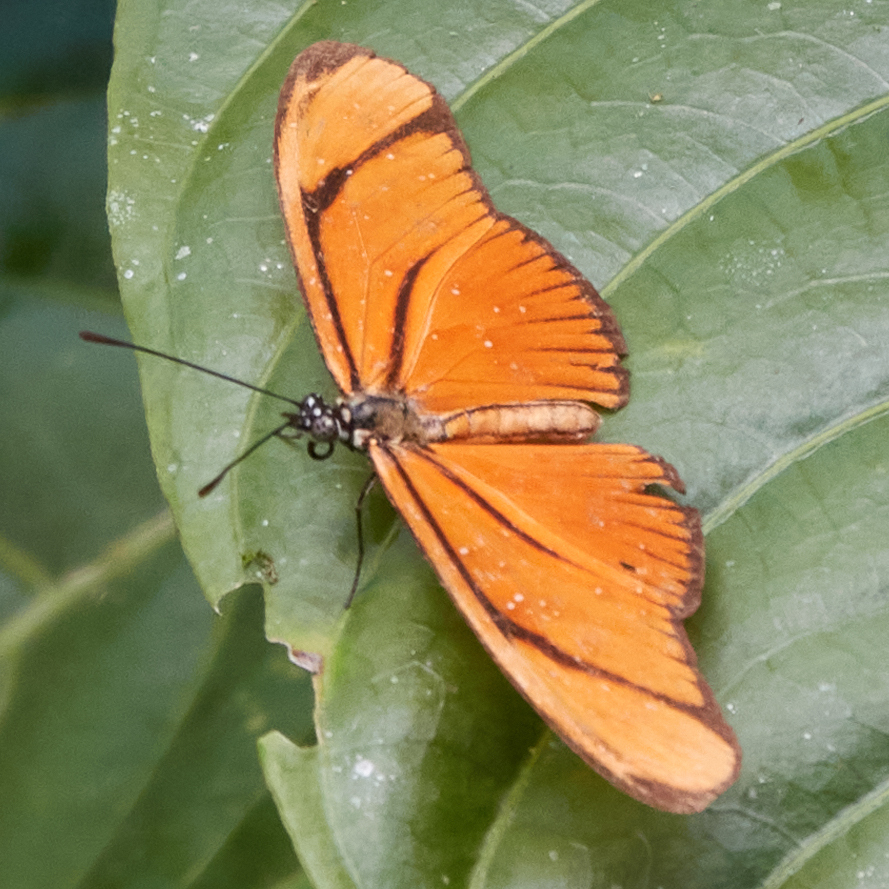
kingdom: Animalia
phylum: Arthropoda
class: Insecta
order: Lepidoptera
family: Nymphalidae
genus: Heliconius
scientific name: Heliconius aliphera
